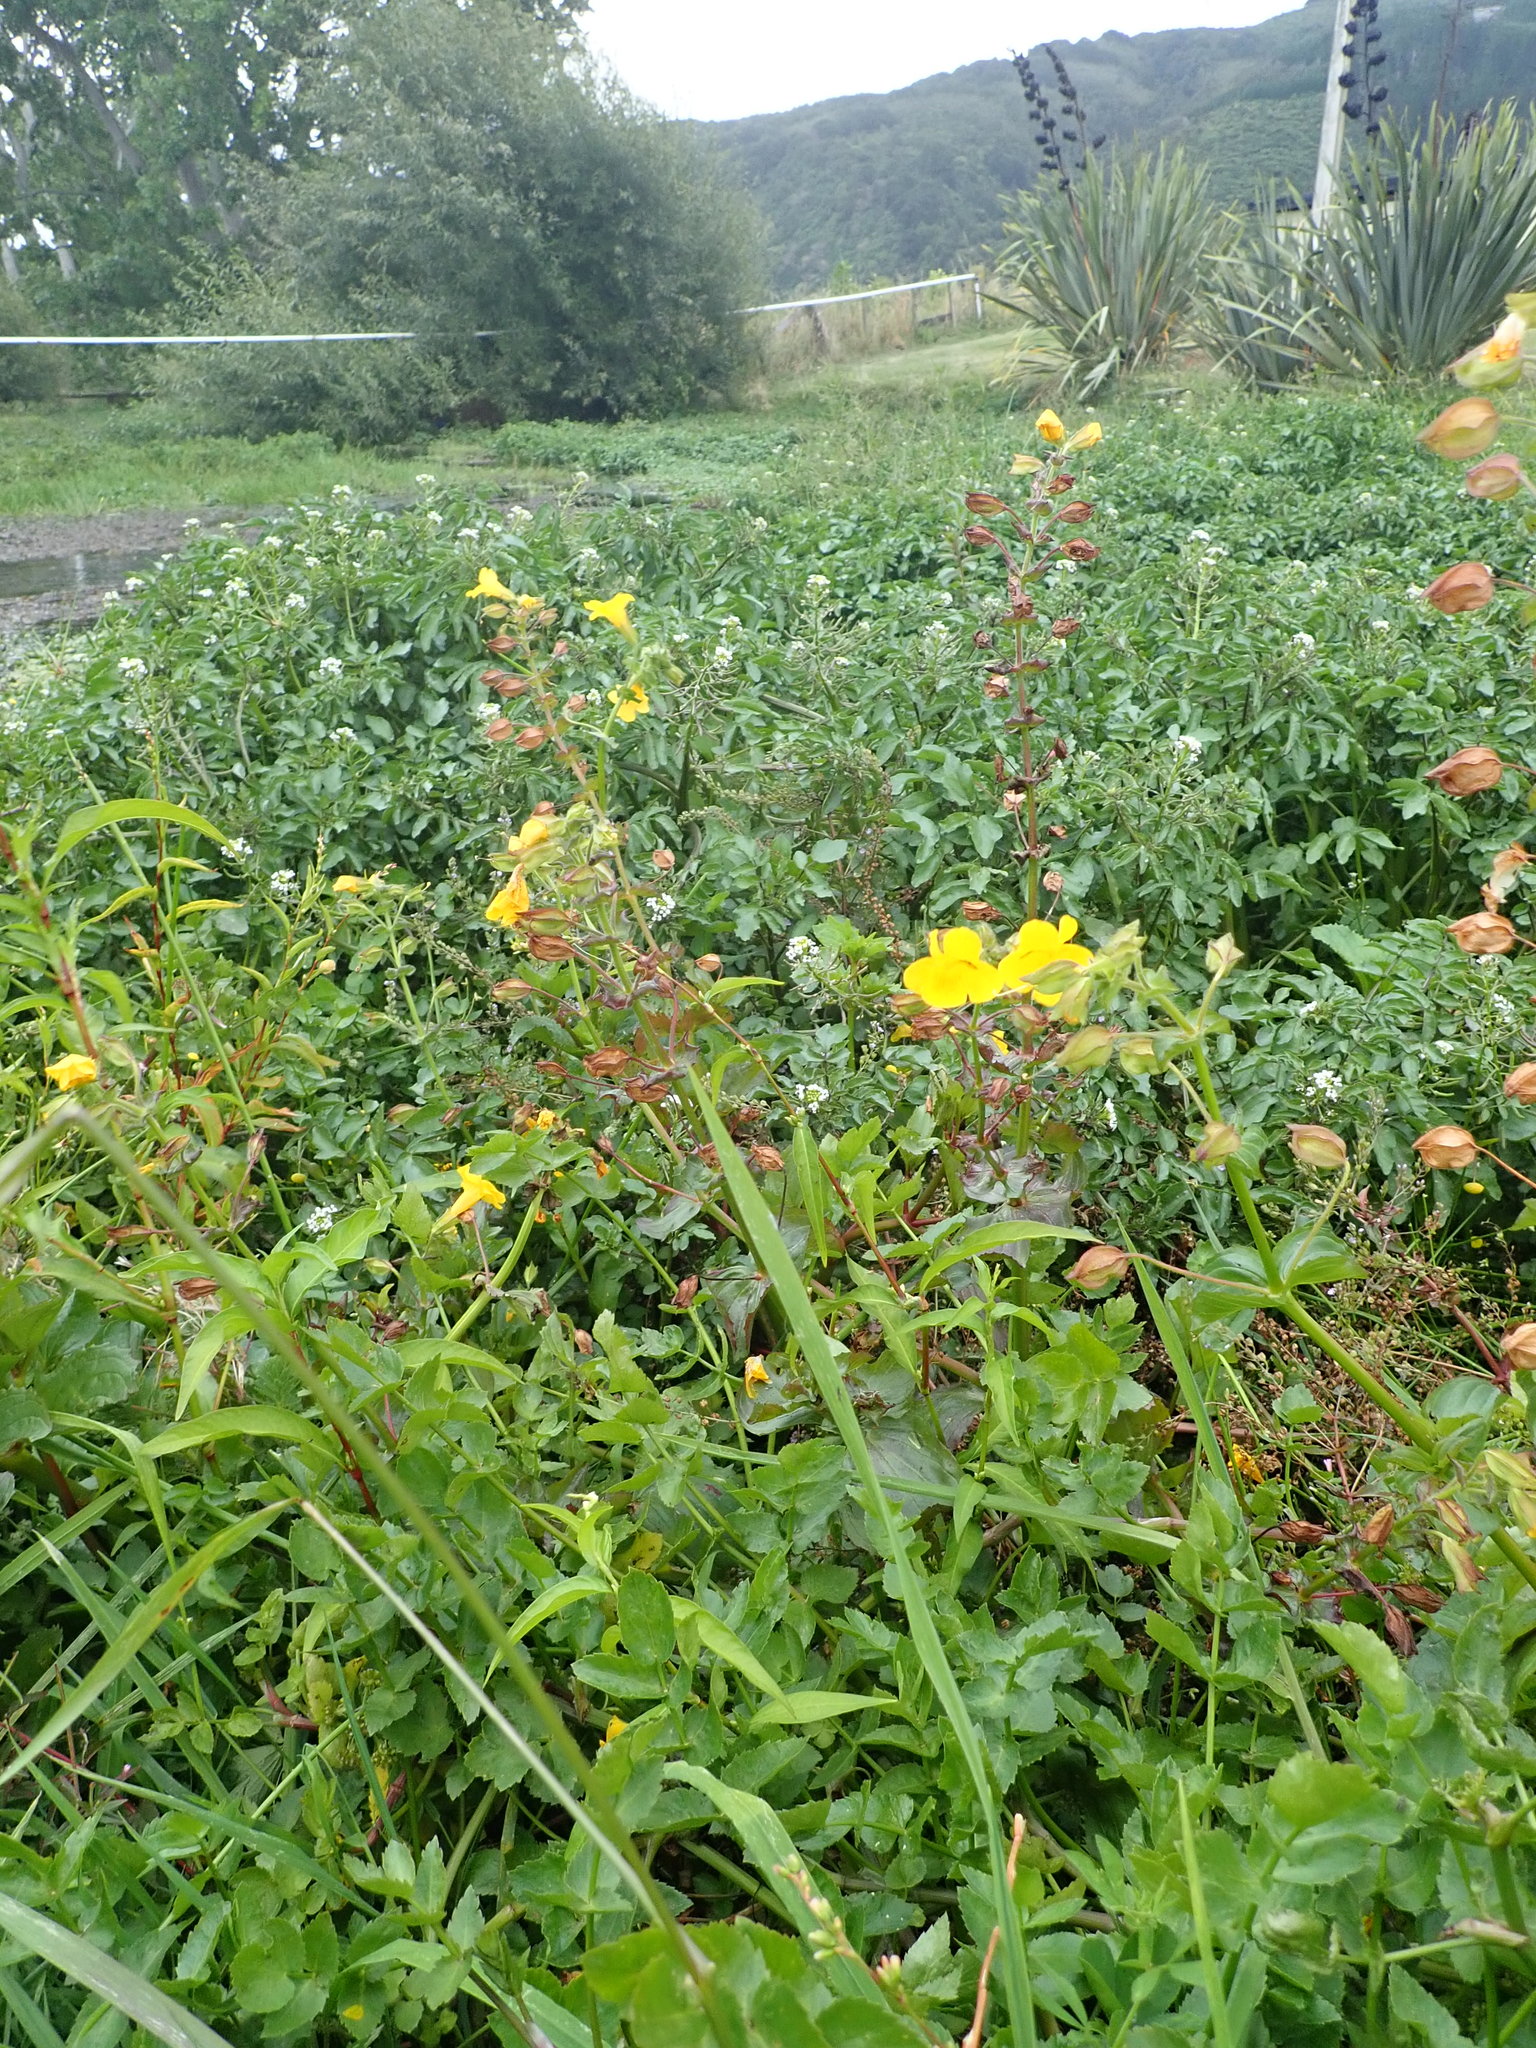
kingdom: Plantae
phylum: Tracheophyta
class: Magnoliopsida
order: Lamiales
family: Phrymaceae
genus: Erythranthe
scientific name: Erythranthe guttata
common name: Monkeyflower
